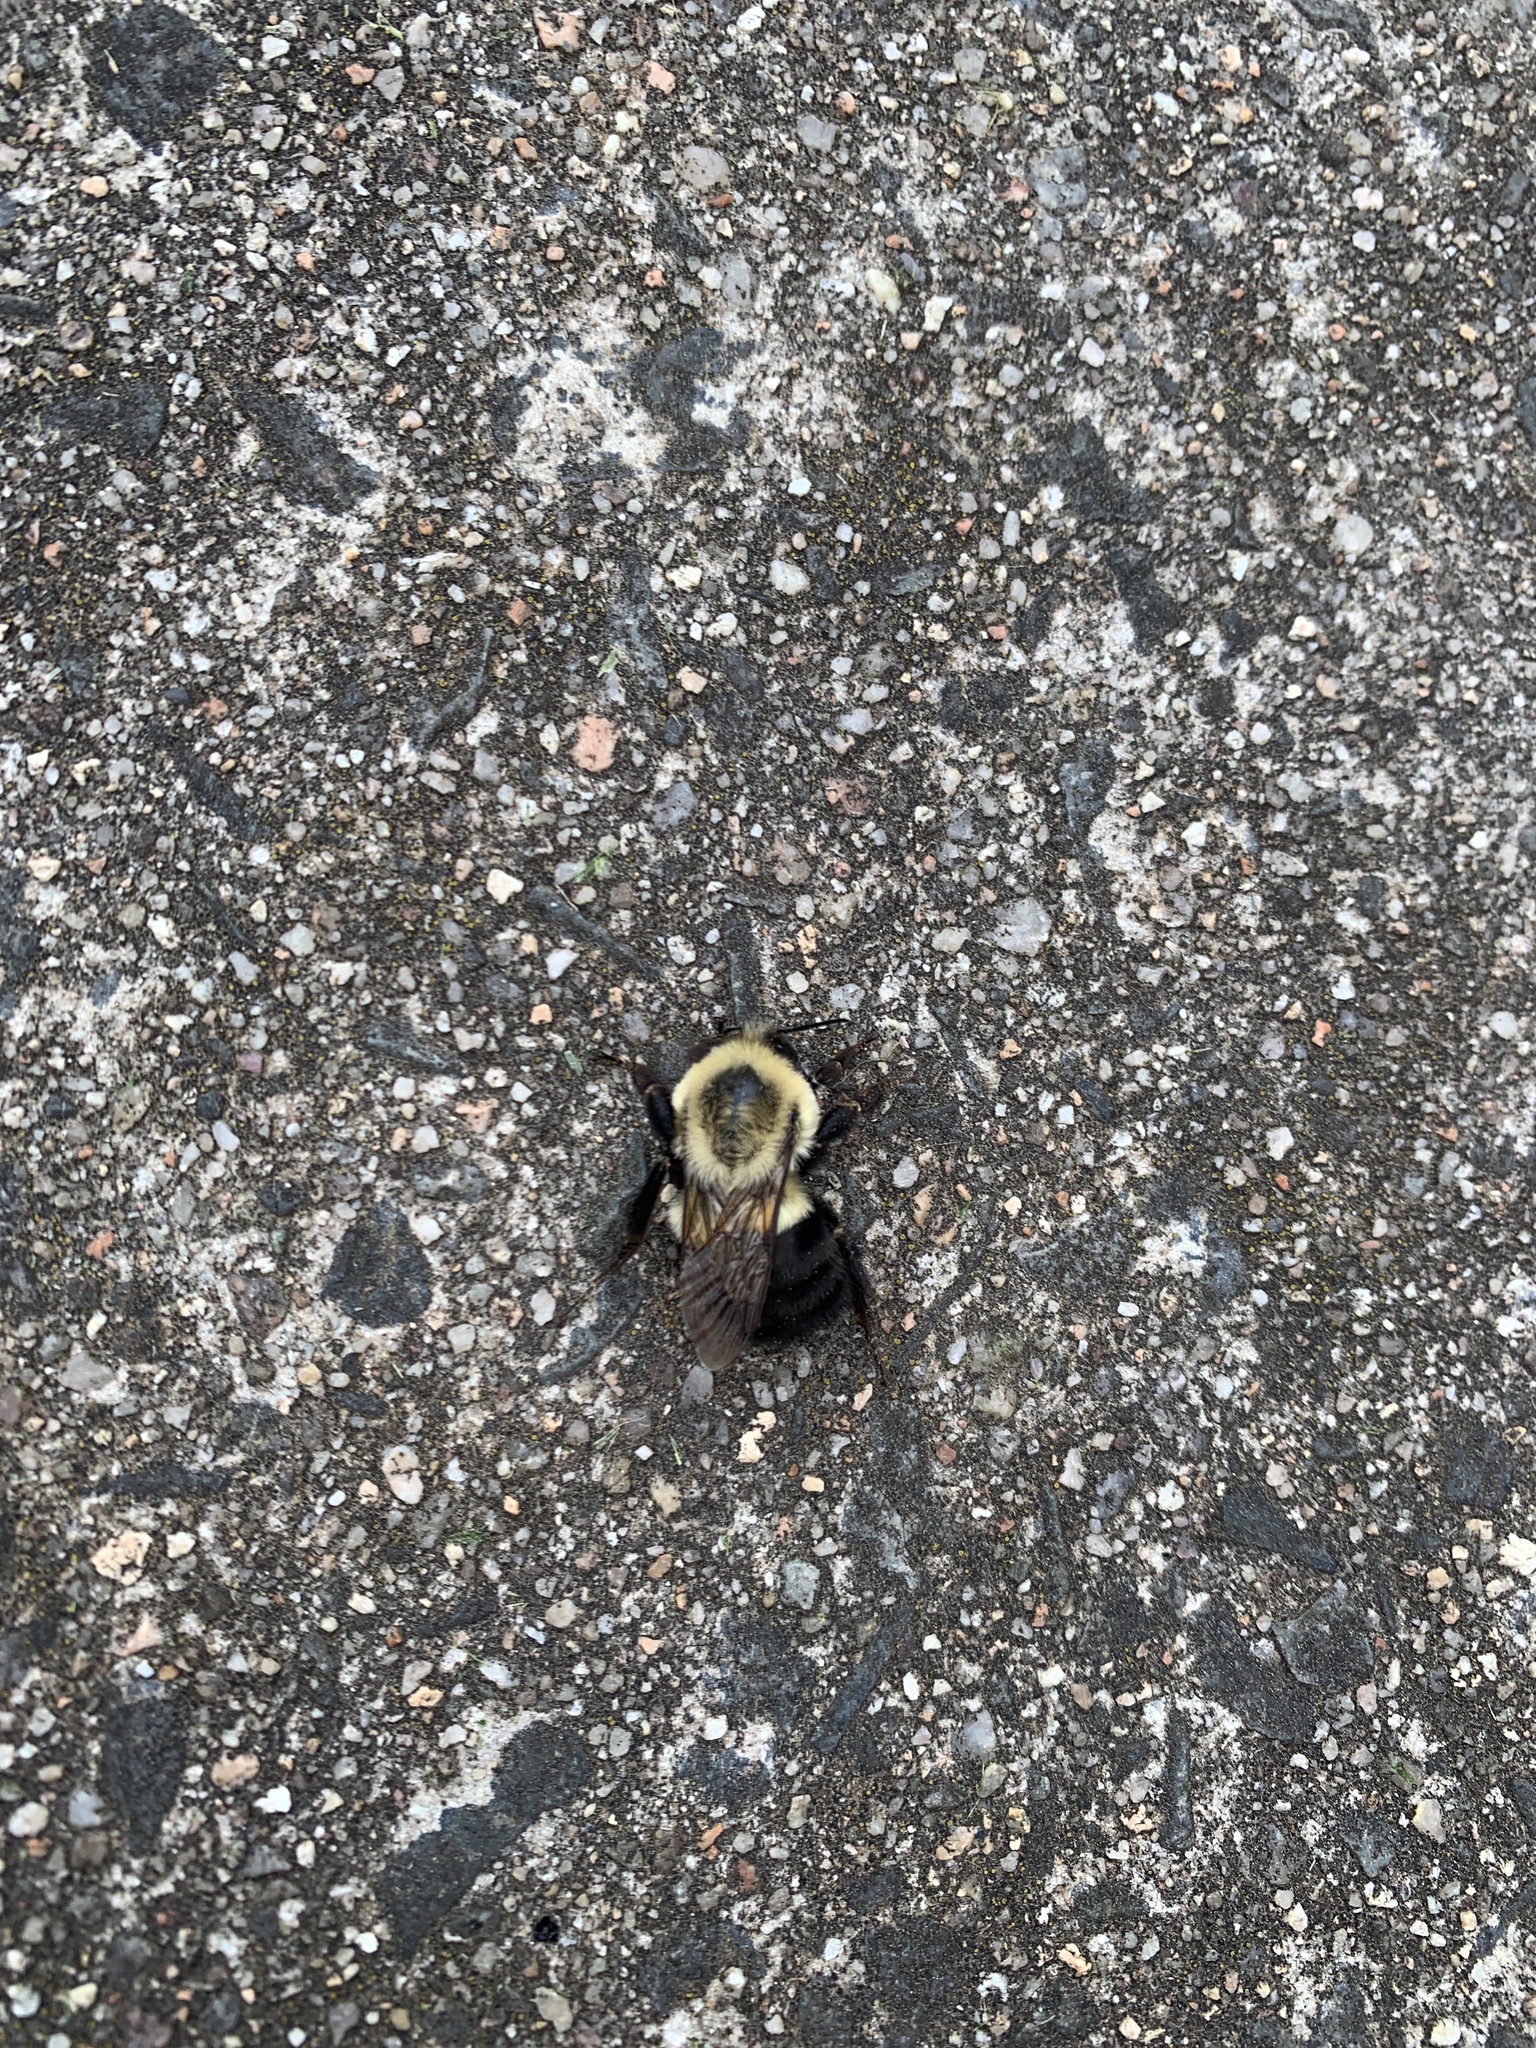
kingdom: Animalia
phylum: Arthropoda
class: Insecta
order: Hymenoptera
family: Apidae
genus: Bombus
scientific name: Bombus impatiens
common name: Common eastern bumble bee
